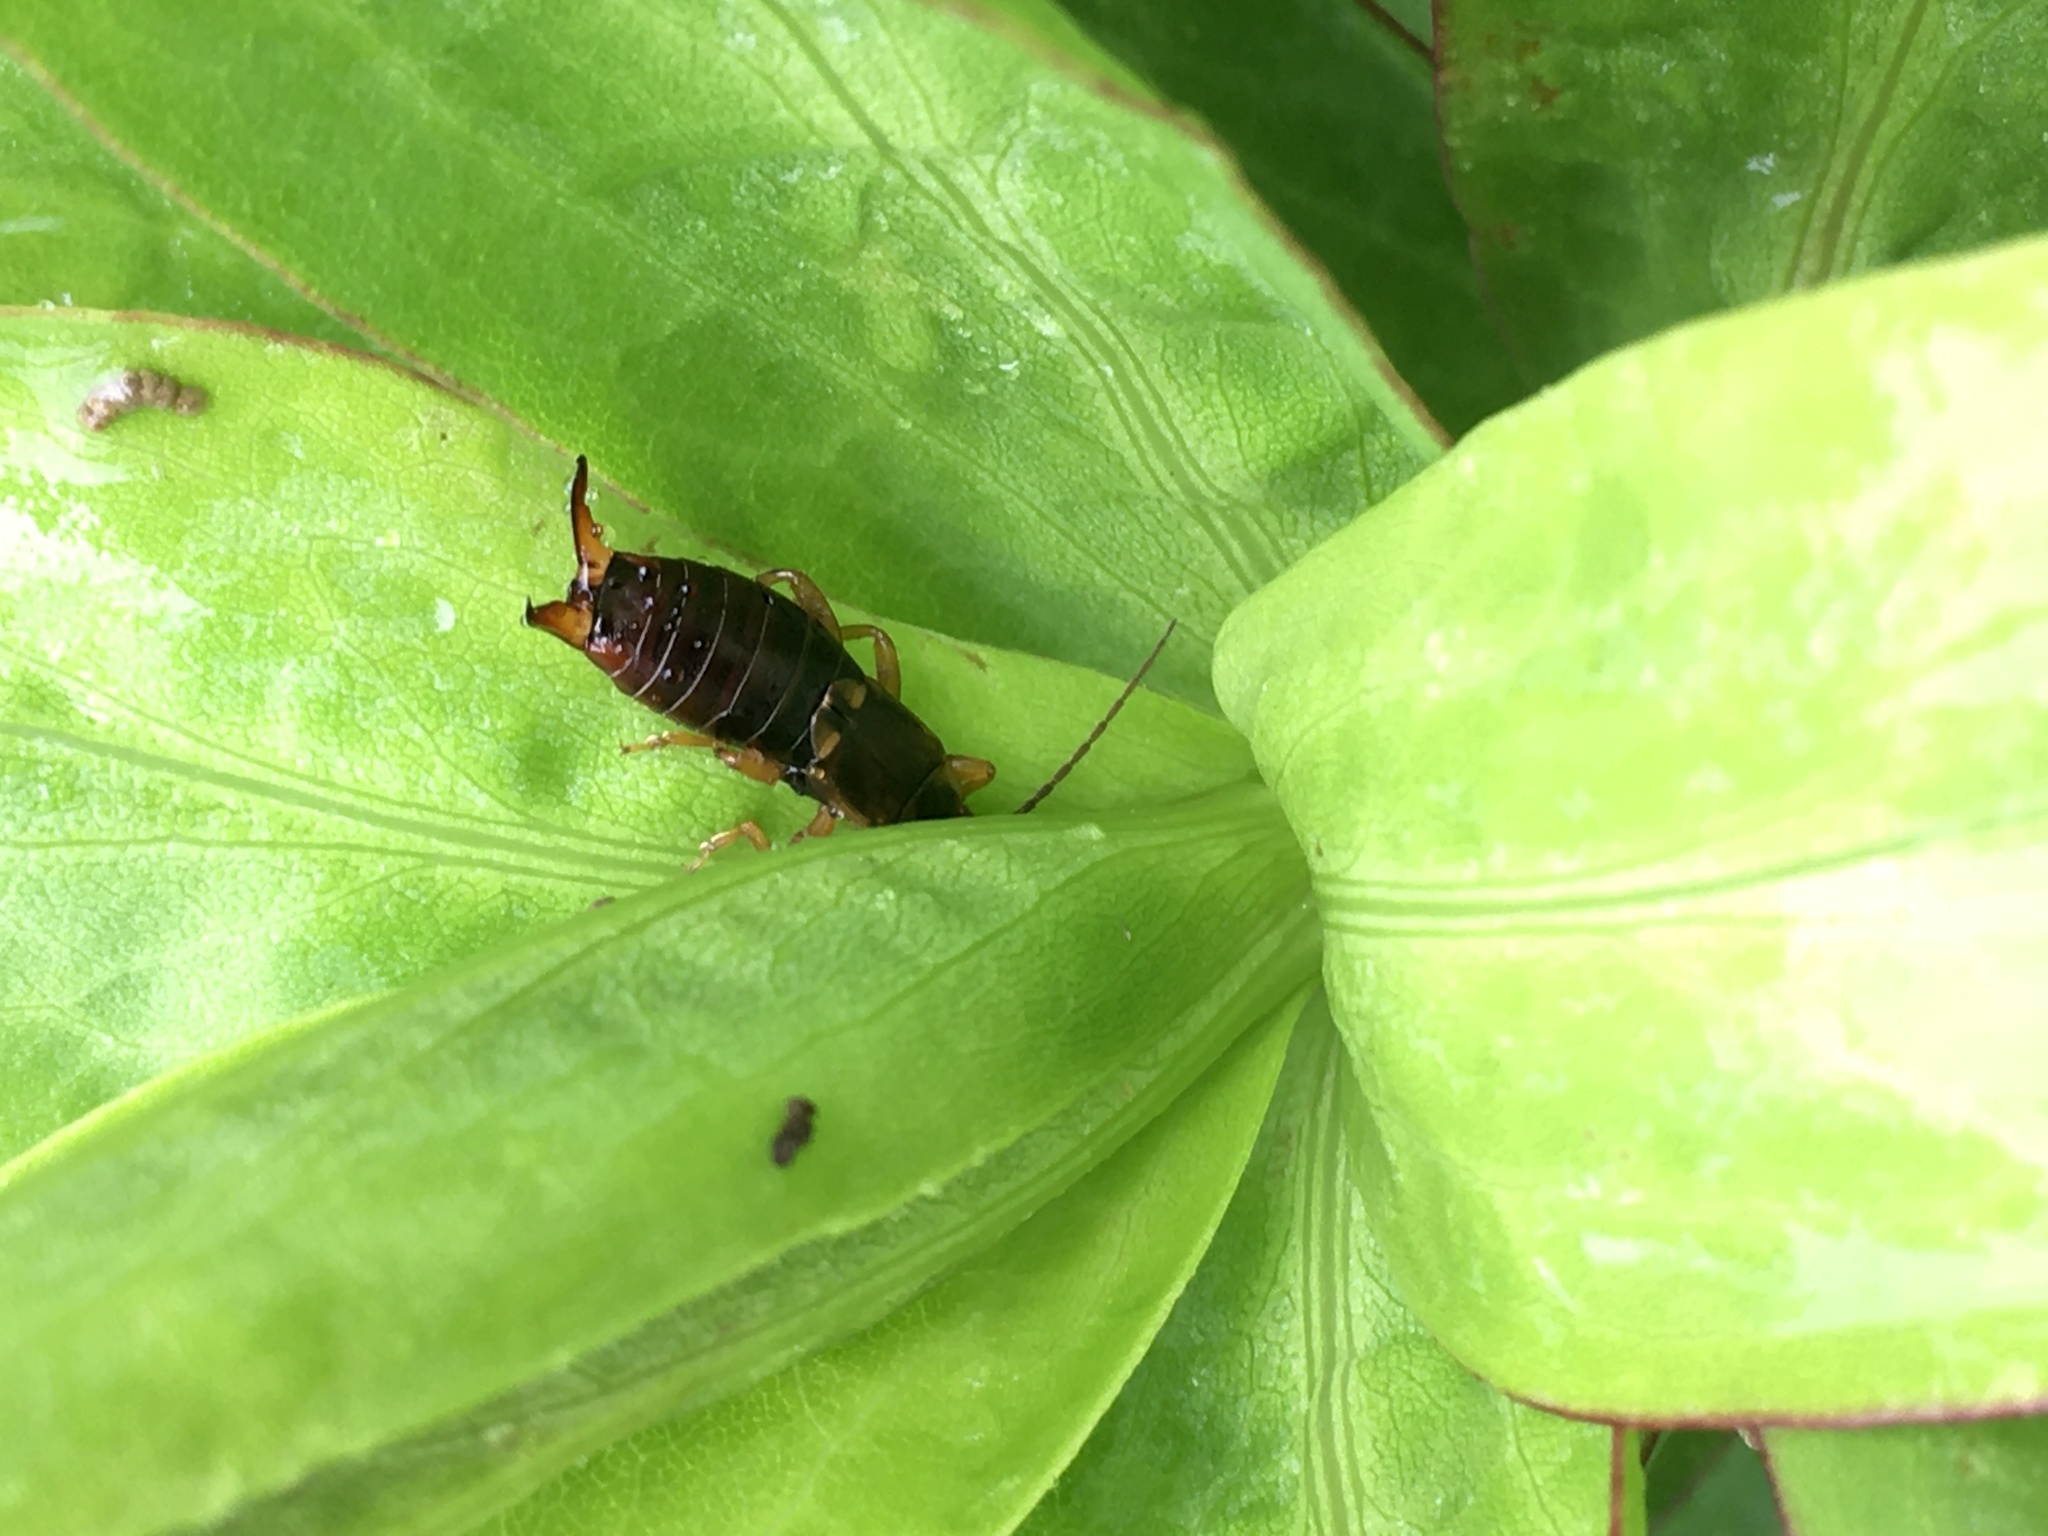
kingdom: Animalia
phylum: Arthropoda
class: Insecta
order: Dermaptera
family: Forficulidae
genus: Forficula
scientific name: Forficula
